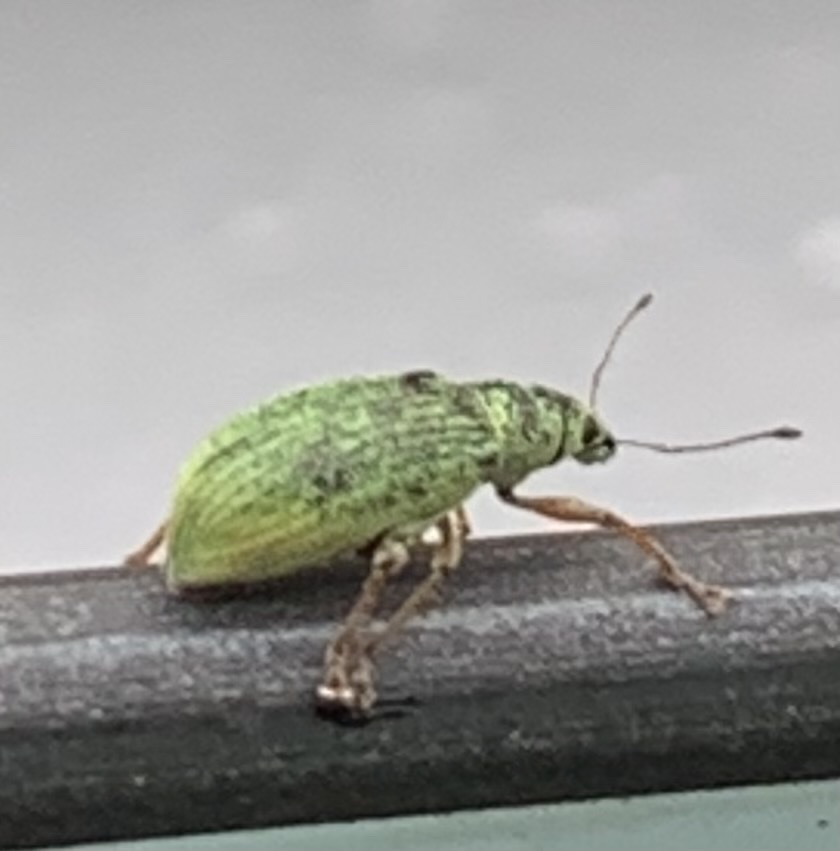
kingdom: Animalia
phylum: Arthropoda
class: Insecta
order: Coleoptera
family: Curculionidae
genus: Polydrusus
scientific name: Polydrusus formosus
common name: Weevil
